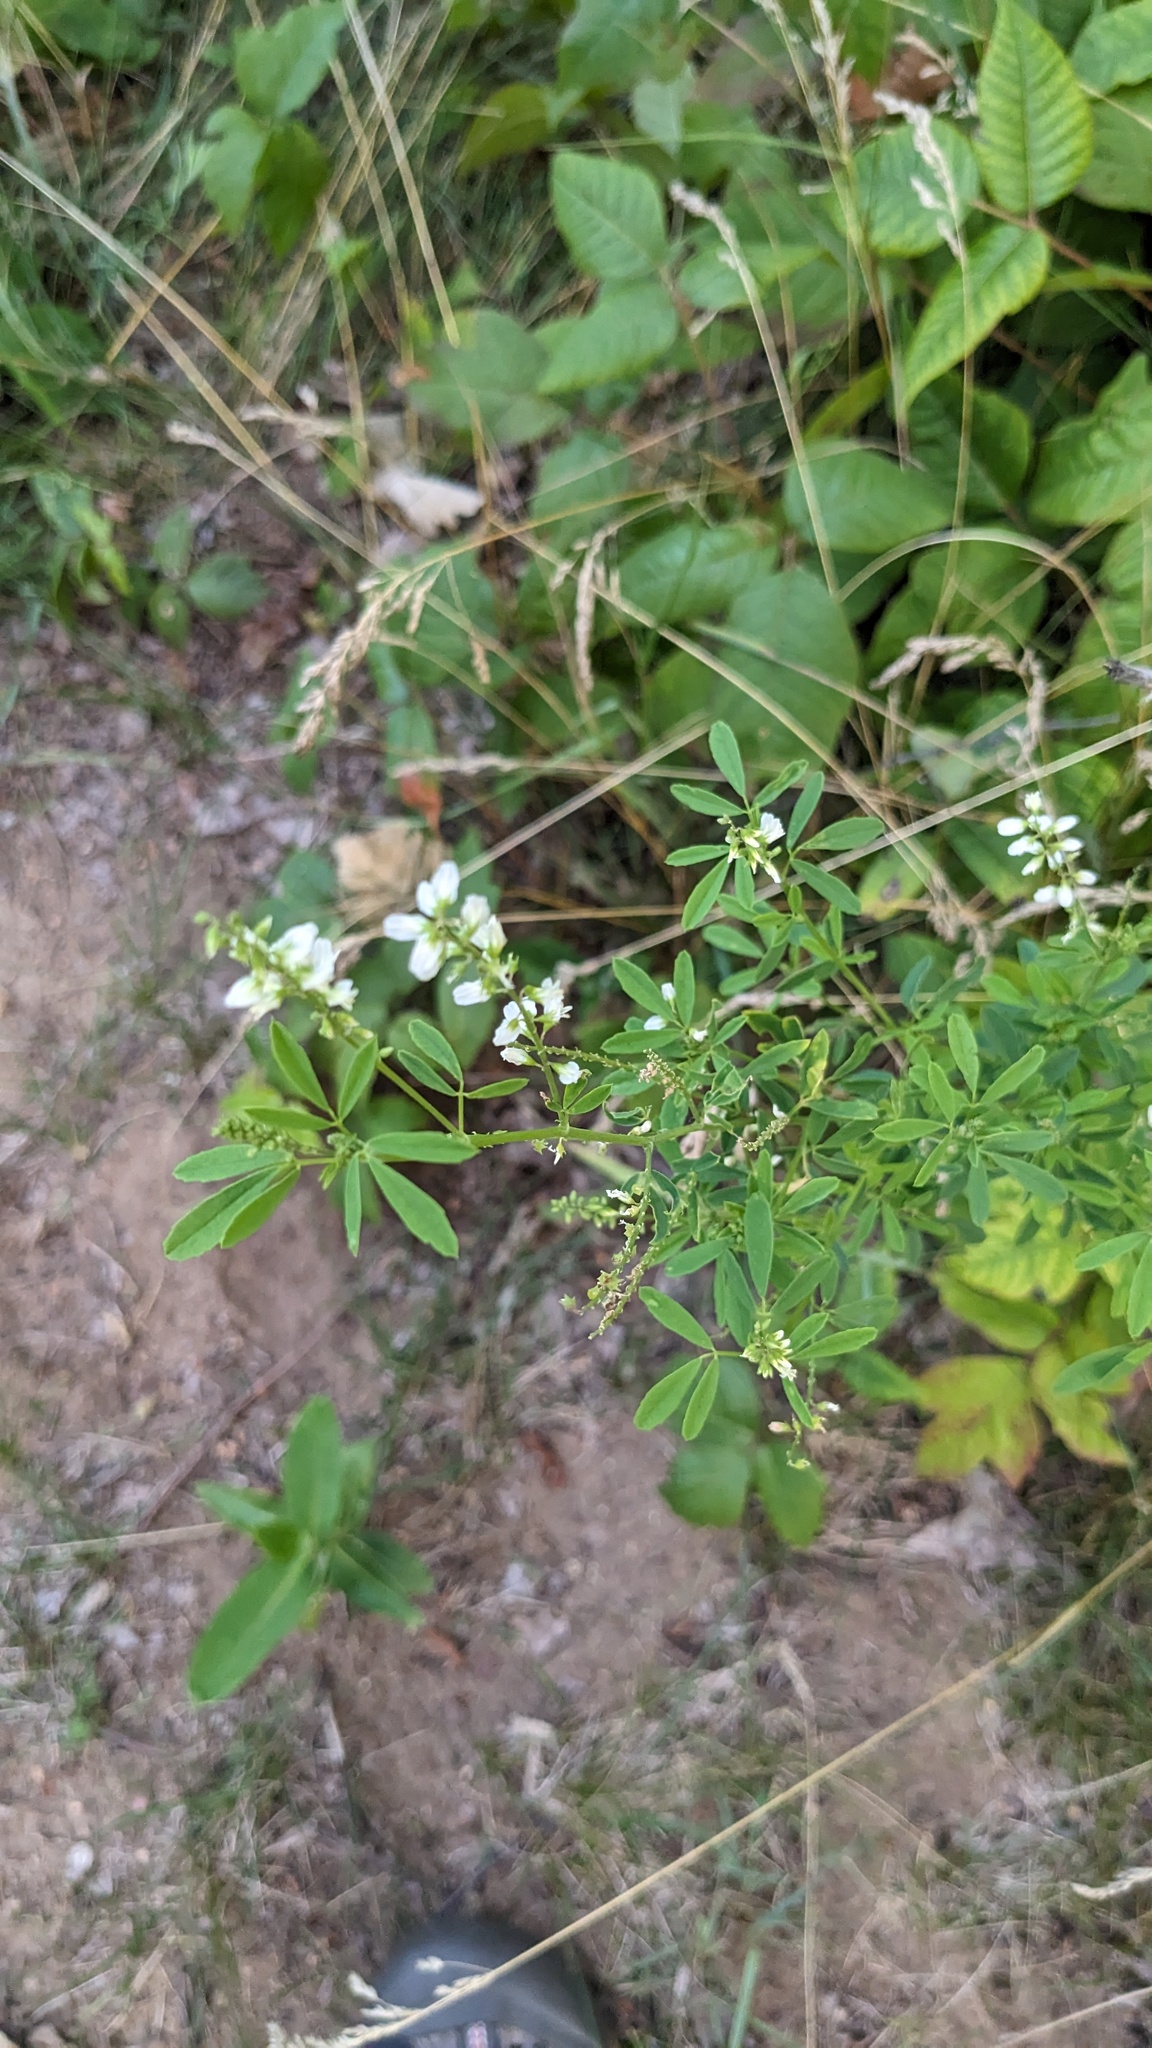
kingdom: Plantae
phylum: Tracheophyta
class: Magnoliopsida
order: Fabales
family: Fabaceae
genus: Melilotus
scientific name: Melilotus albus
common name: White melilot
